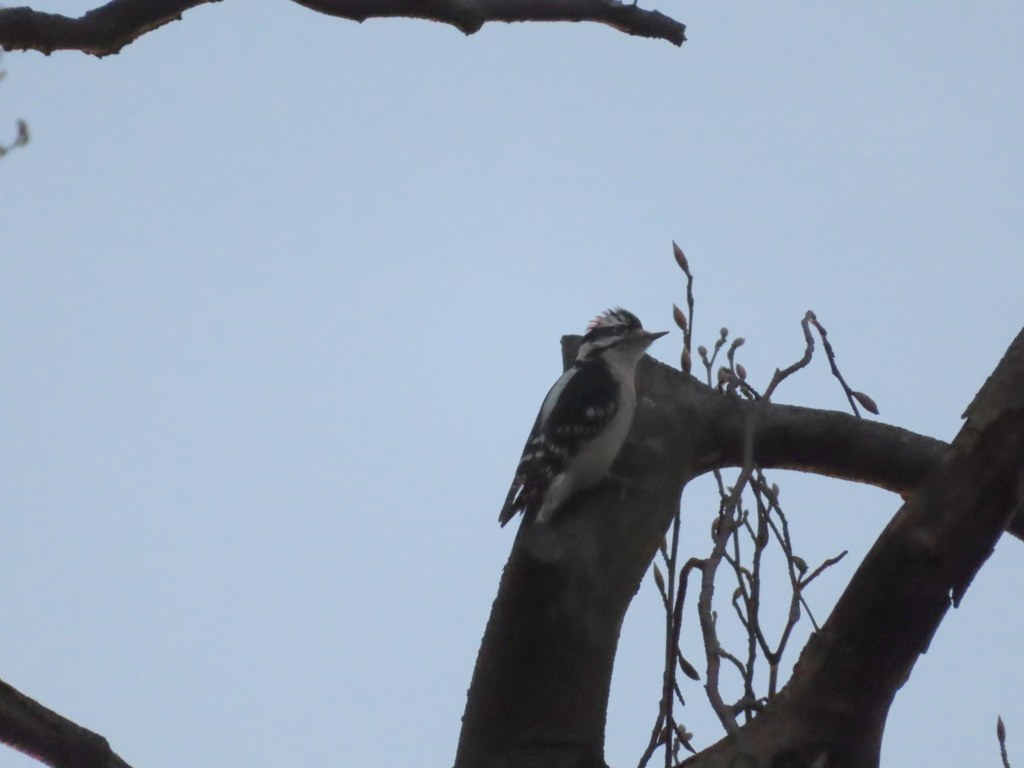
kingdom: Animalia
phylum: Chordata
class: Aves
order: Piciformes
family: Picidae
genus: Dryobates
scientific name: Dryobates pubescens
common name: Downy woodpecker
